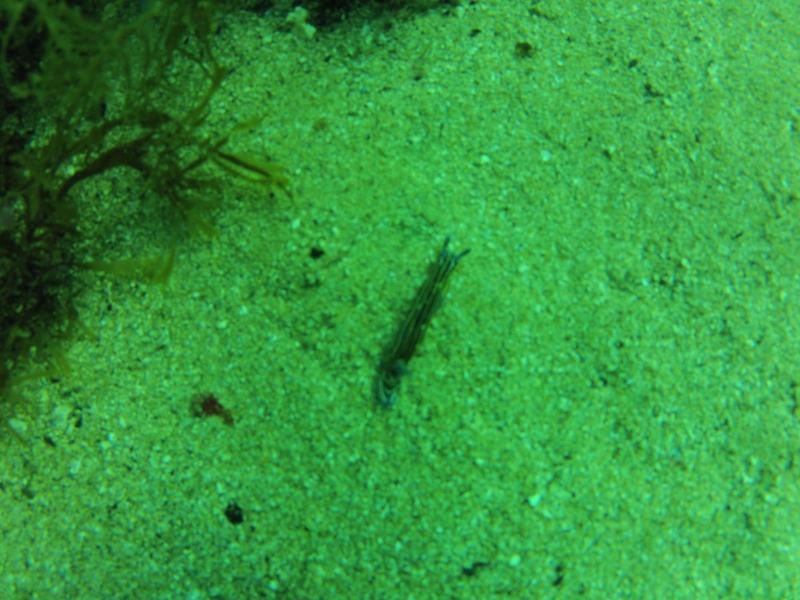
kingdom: Animalia
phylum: Mollusca
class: Gastropoda
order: Nudibranchia
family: Chromodorididae
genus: Felimare
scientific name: Felimare villafranca
